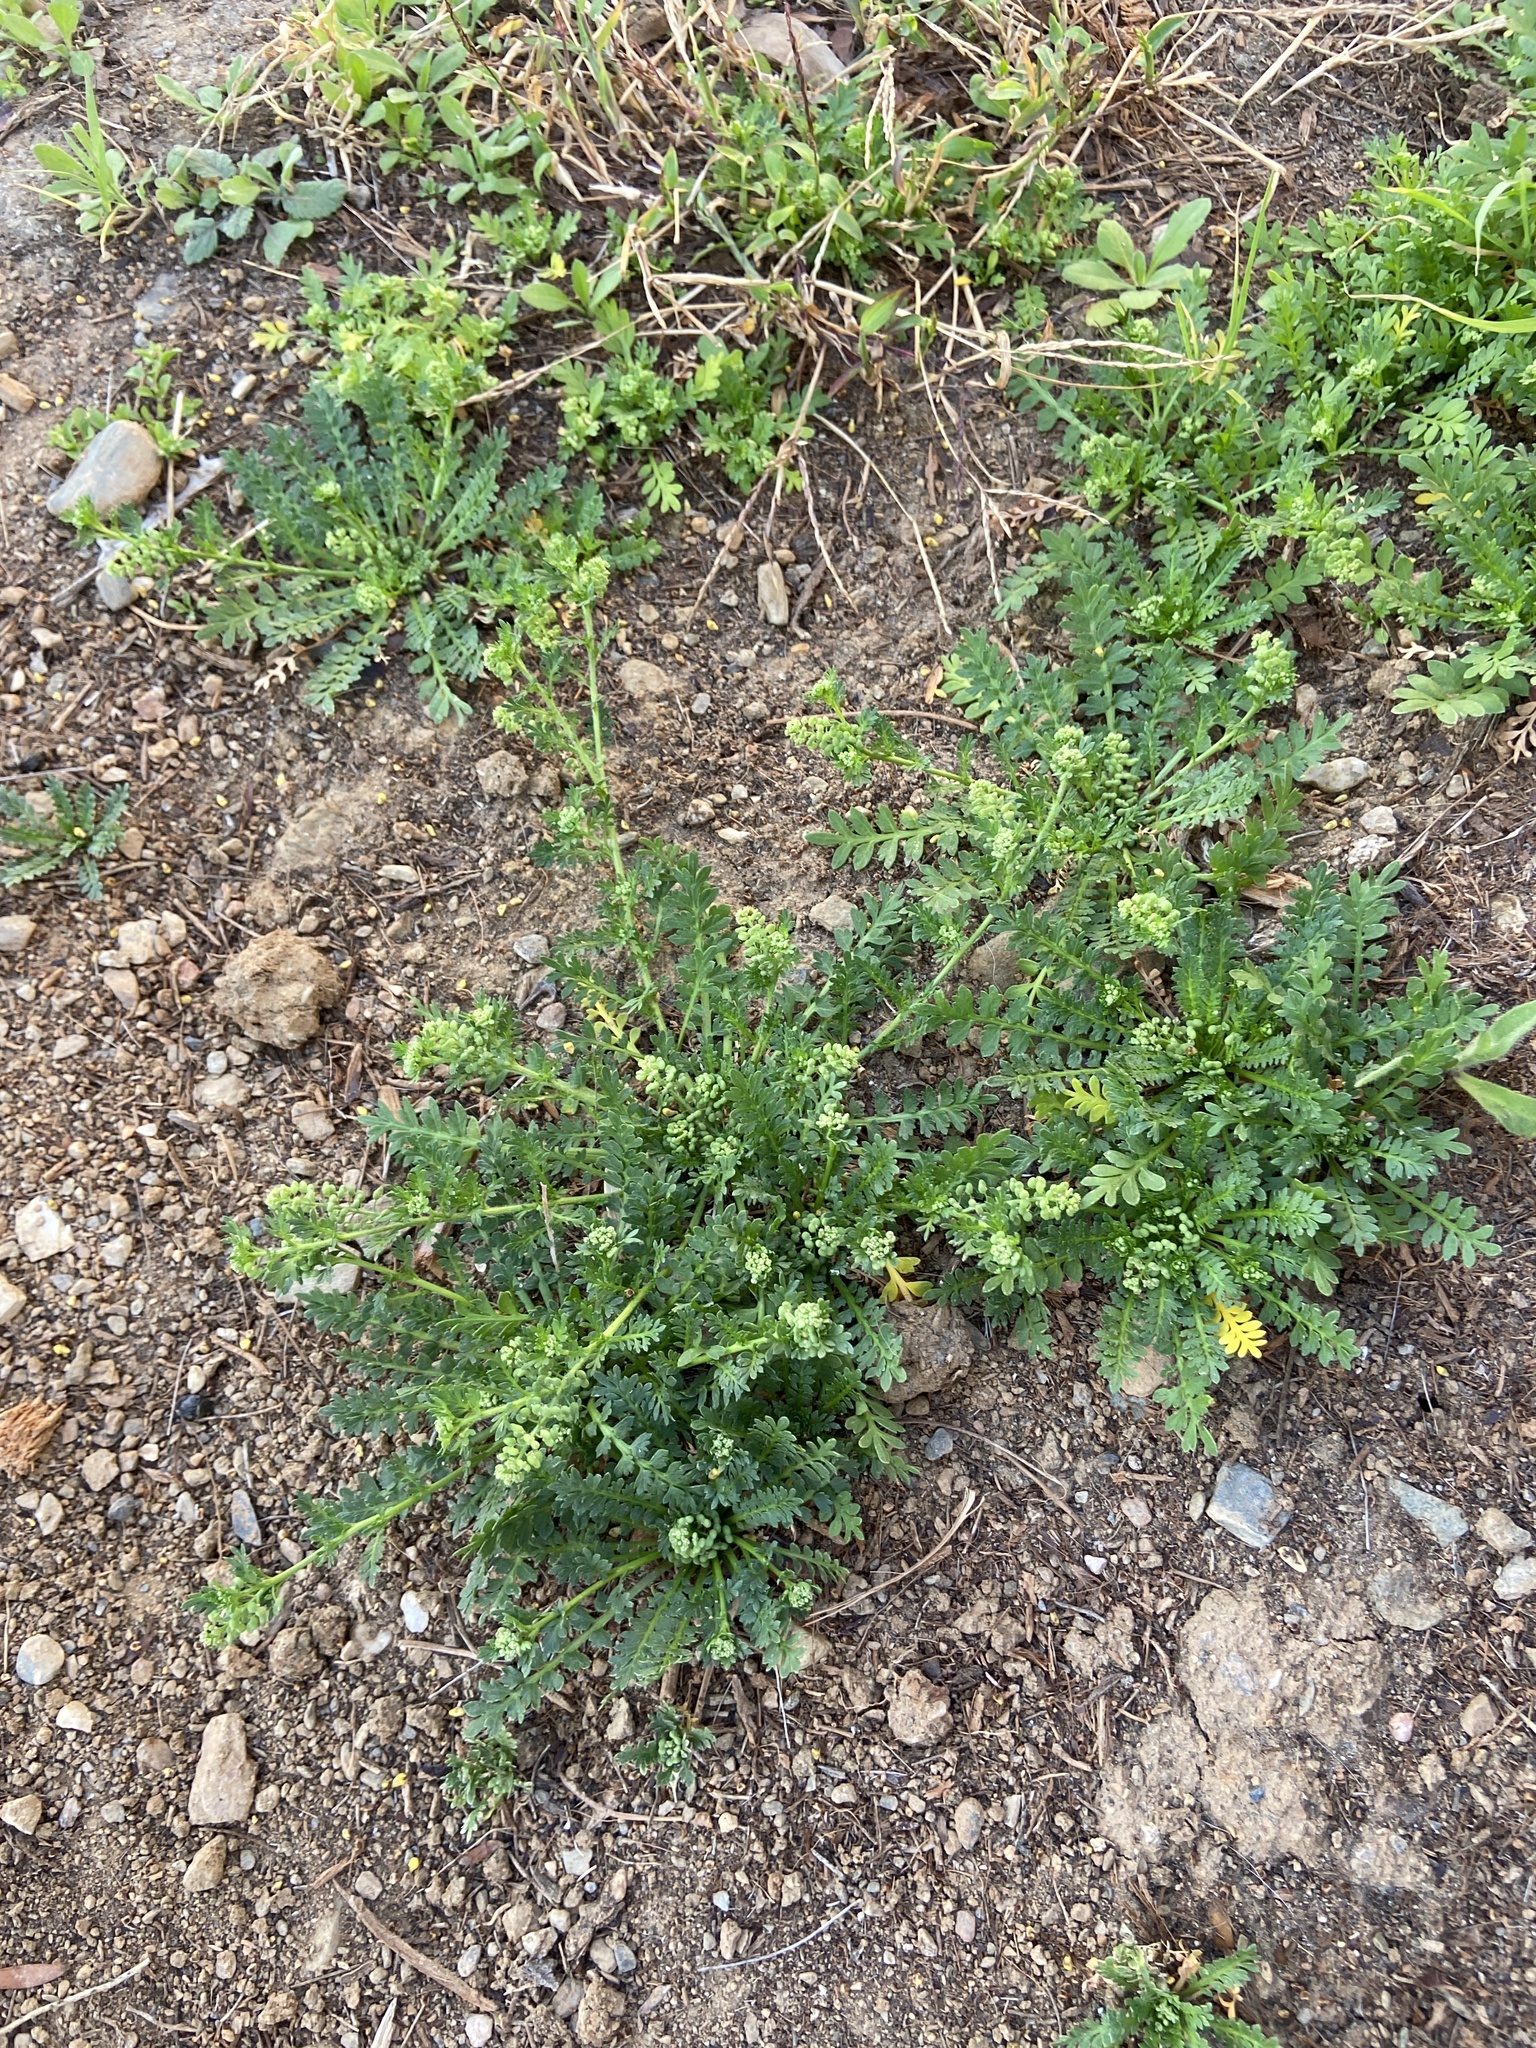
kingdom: Plantae
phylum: Tracheophyta
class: Magnoliopsida
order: Brassicales
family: Brassicaceae
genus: Lepidium
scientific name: Lepidium didymum
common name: Lesser swinecress
